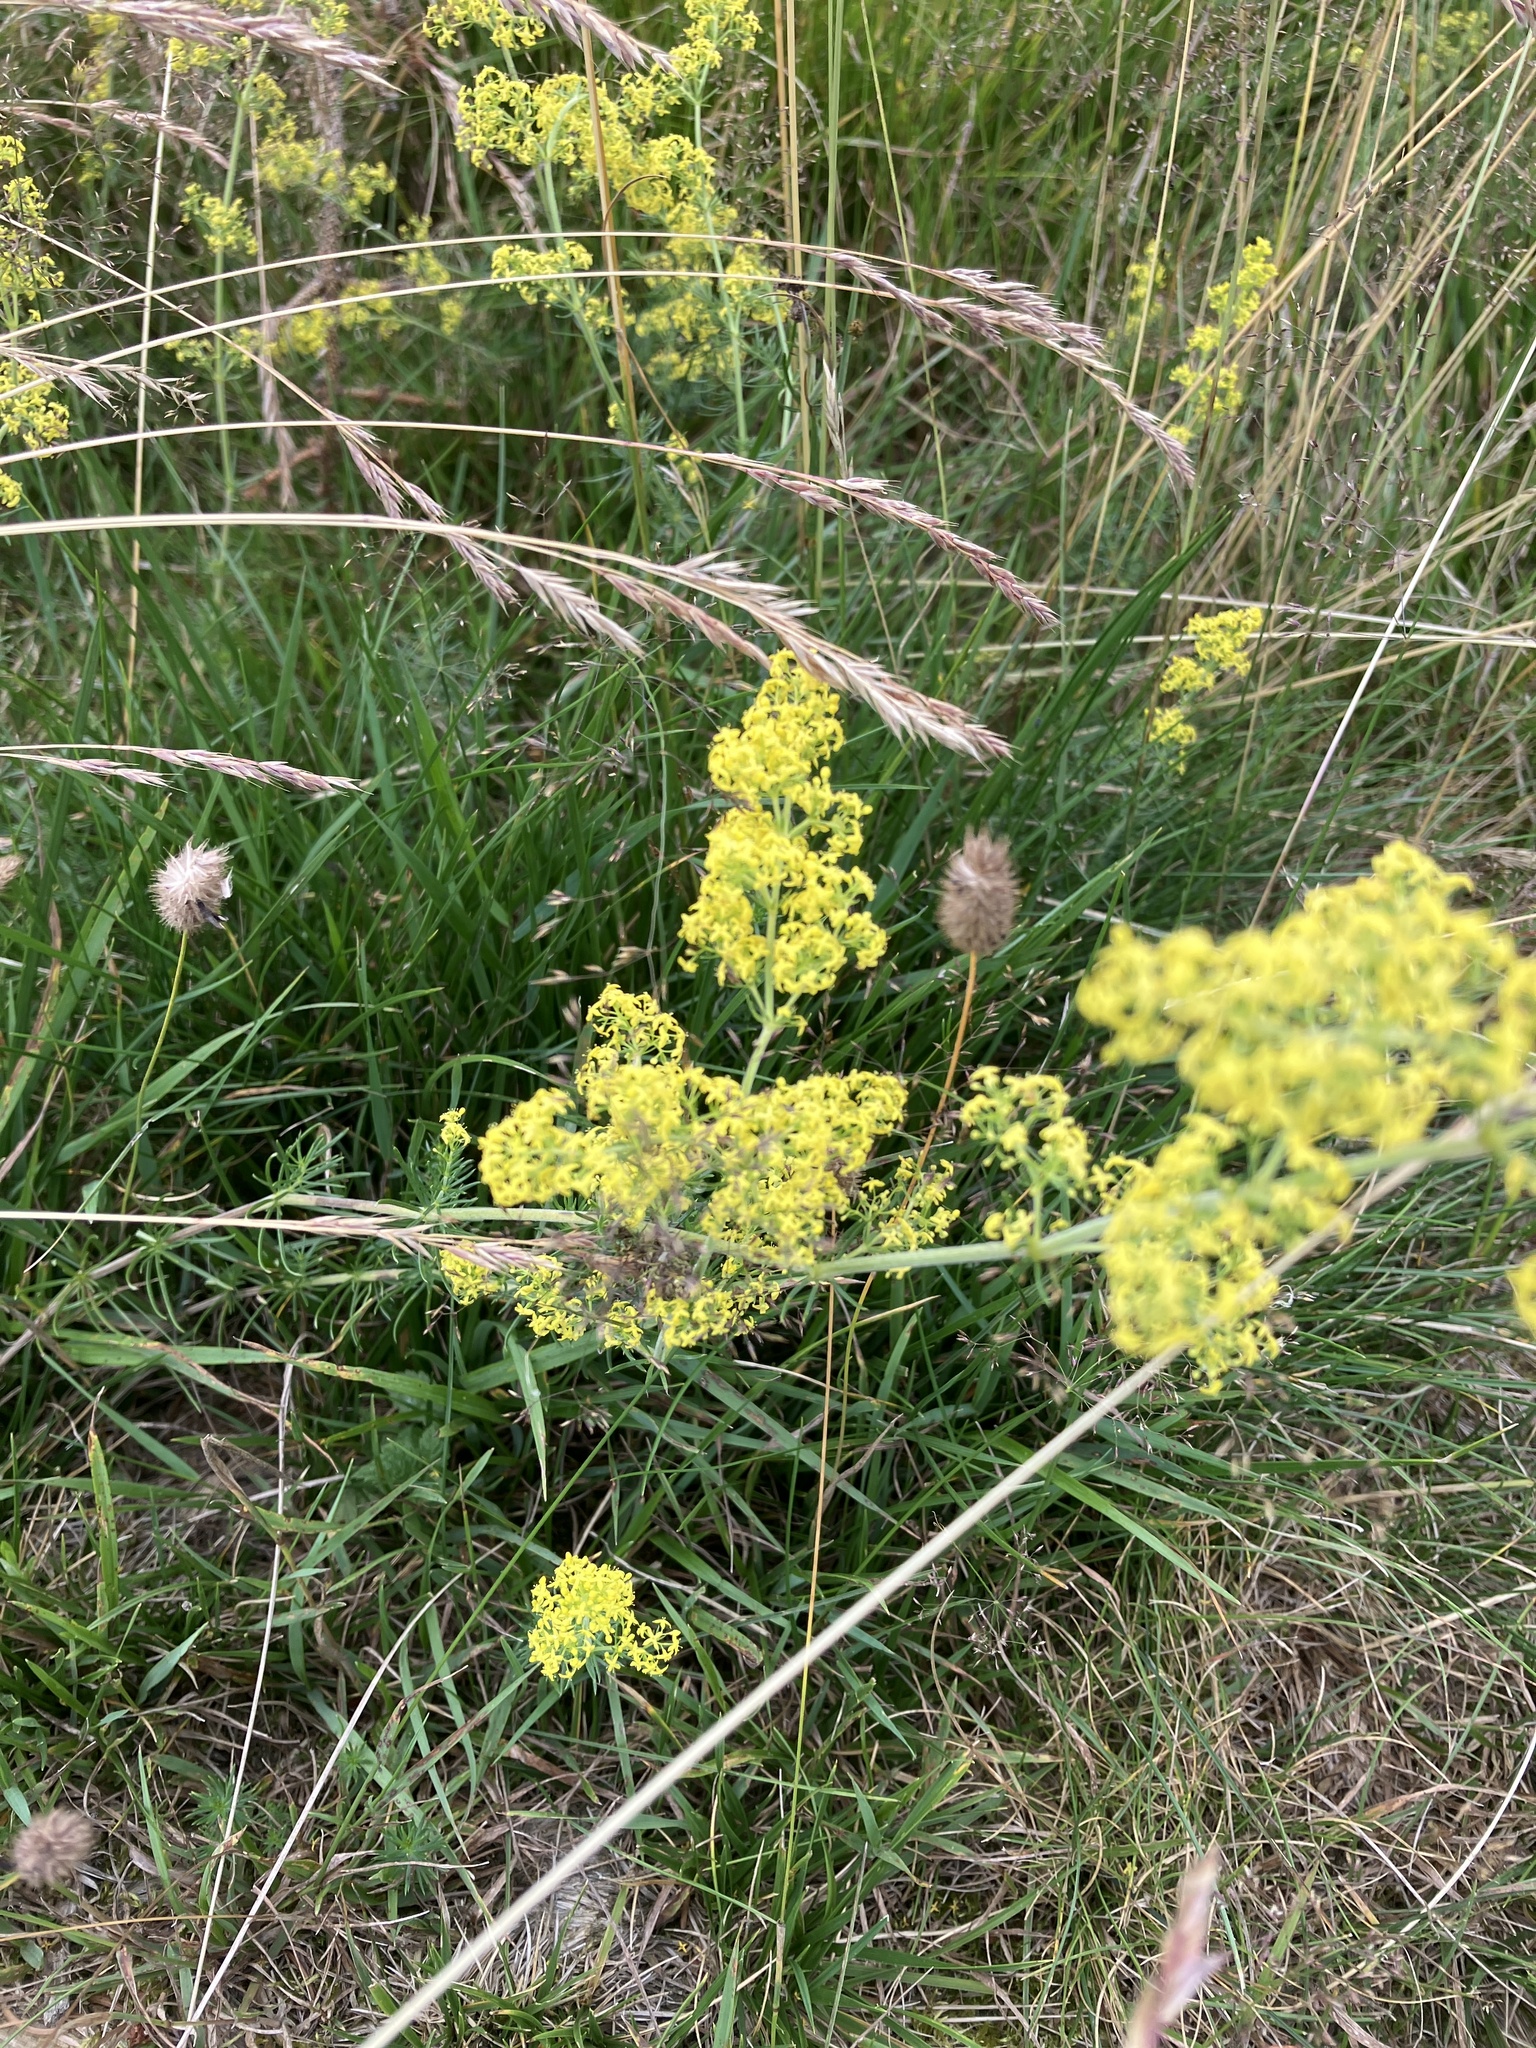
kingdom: Plantae
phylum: Tracheophyta
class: Magnoliopsida
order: Gentianales
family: Rubiaceae
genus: Galium
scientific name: Galium verum
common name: Lady's bedstraw
